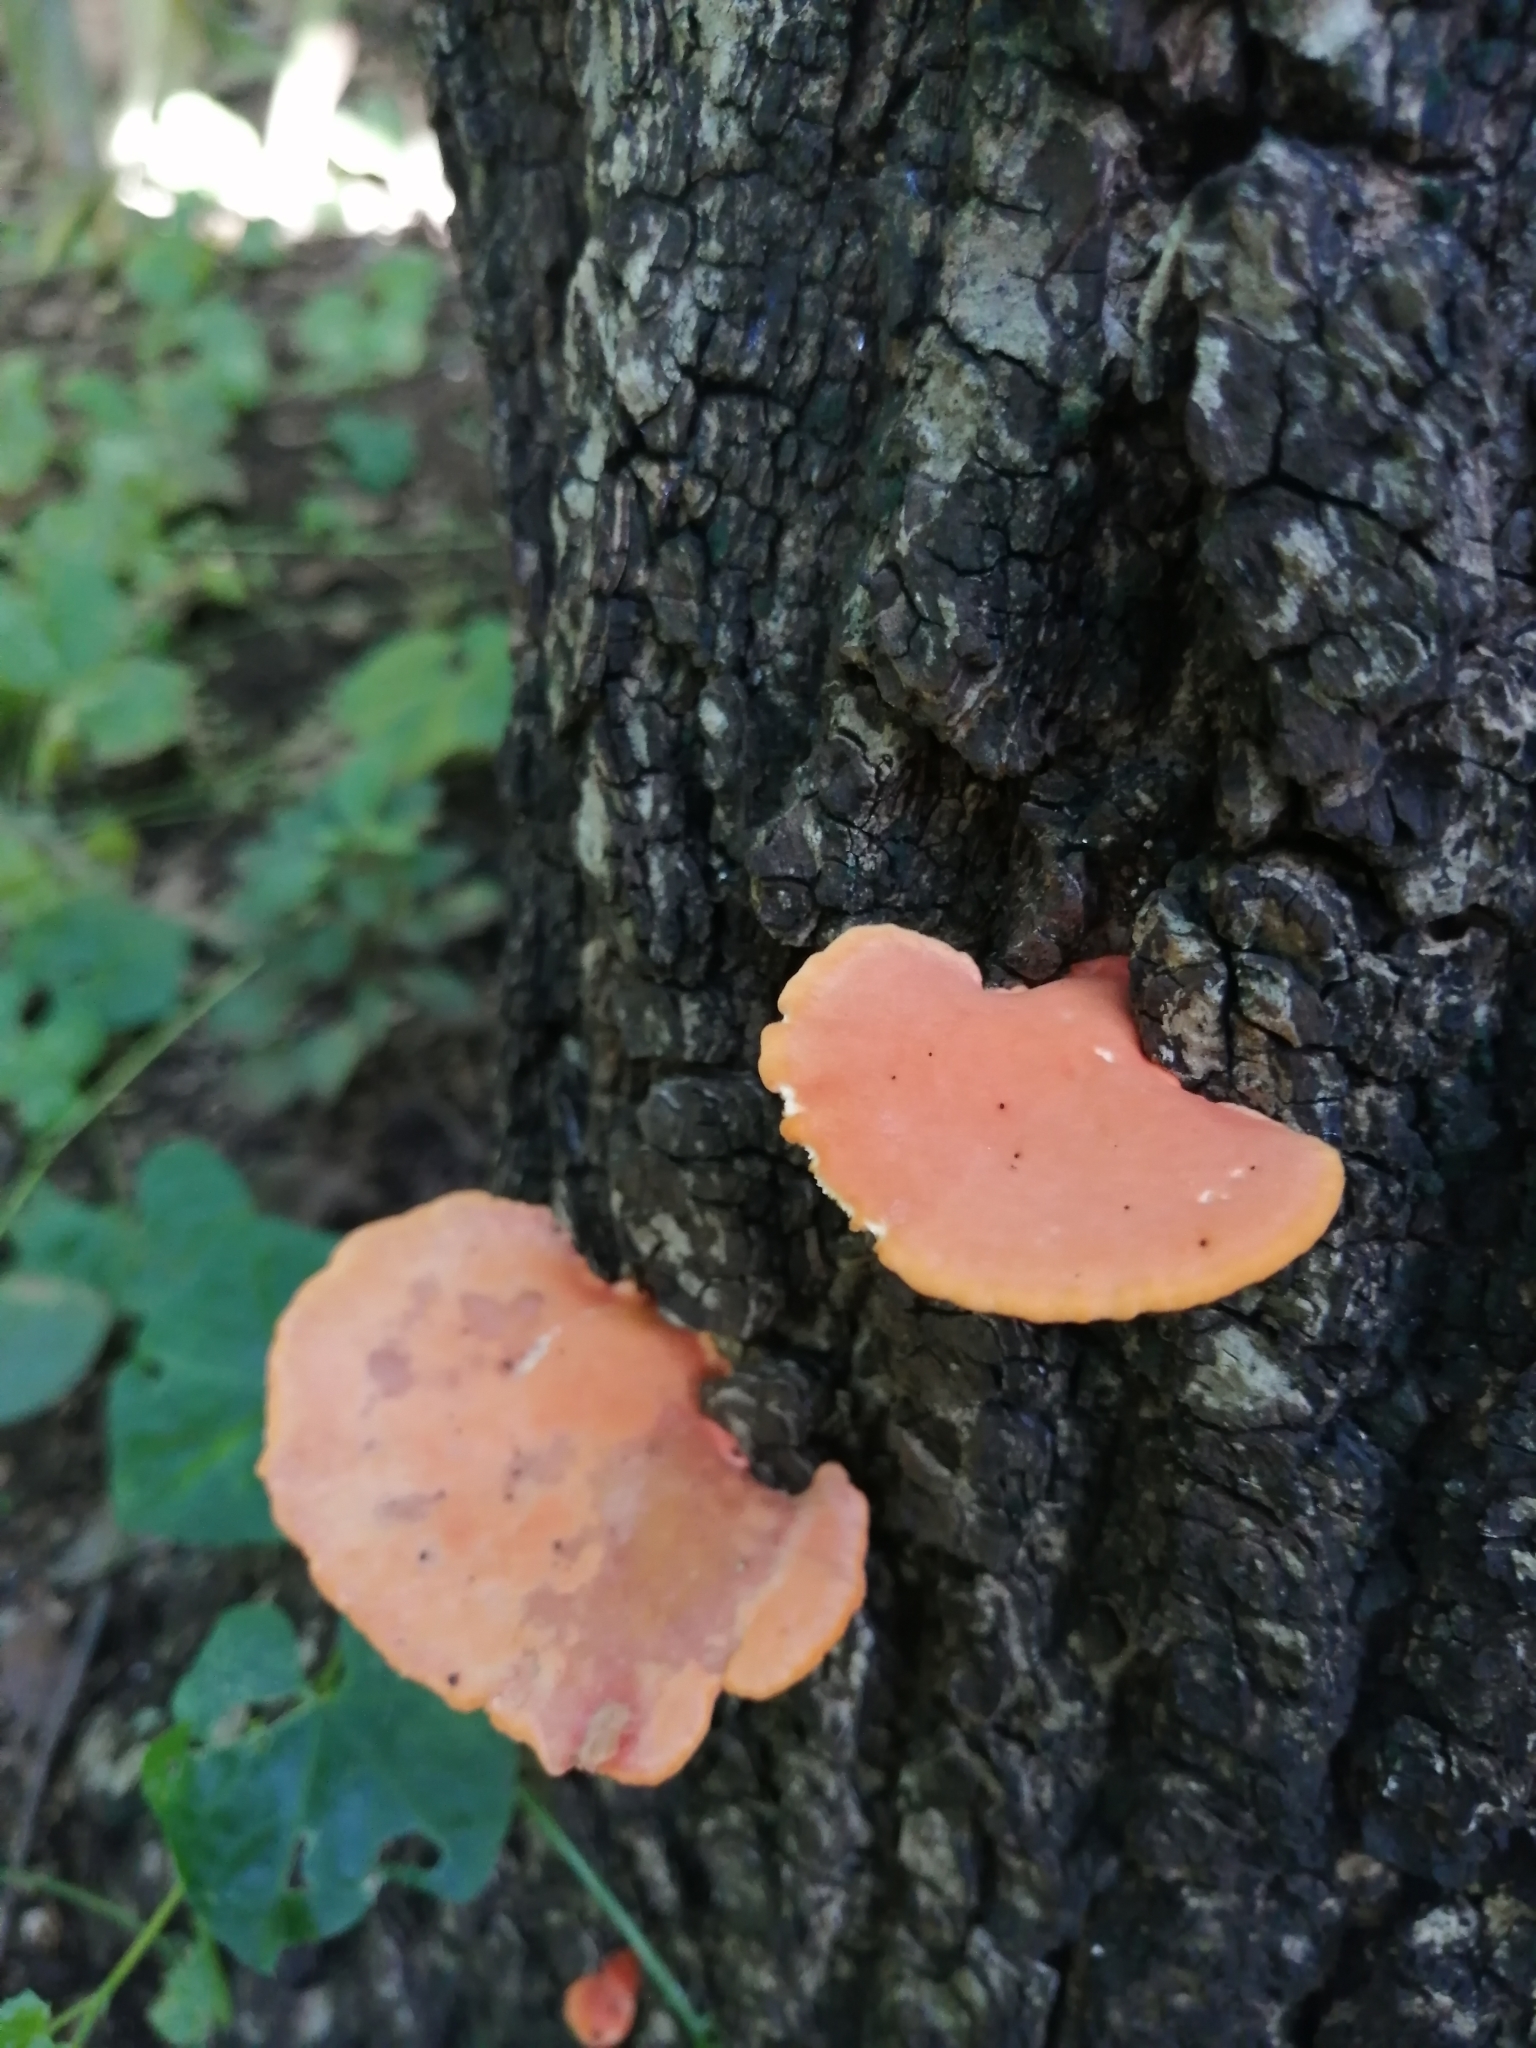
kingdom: Fungi
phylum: Basidiomycota
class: Agaricomycetes
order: Polyporales
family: Polyporaceae
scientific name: Polyporaceae
